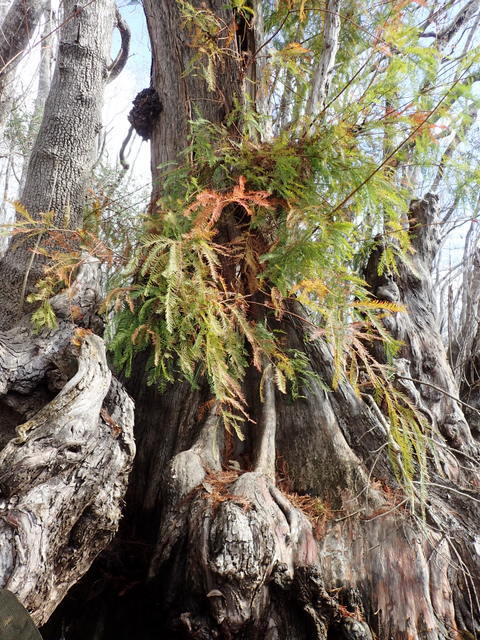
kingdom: Plantae
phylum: Tracheophyta
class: Pinopsida
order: Pinales
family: Cupressaceae
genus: Taxodium
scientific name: Taxodium distichum
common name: Bald cypress
